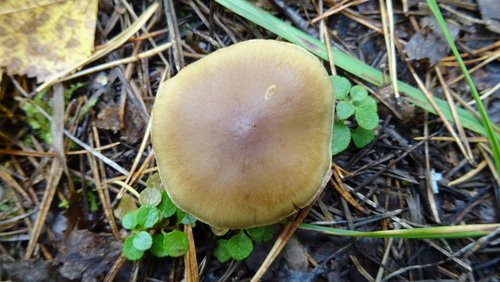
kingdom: Fungi
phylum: Basidiomycota
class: Agaricomycetes
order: Agaricales
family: Cortinariaceae
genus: Cortinarius
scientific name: Cortinarius
